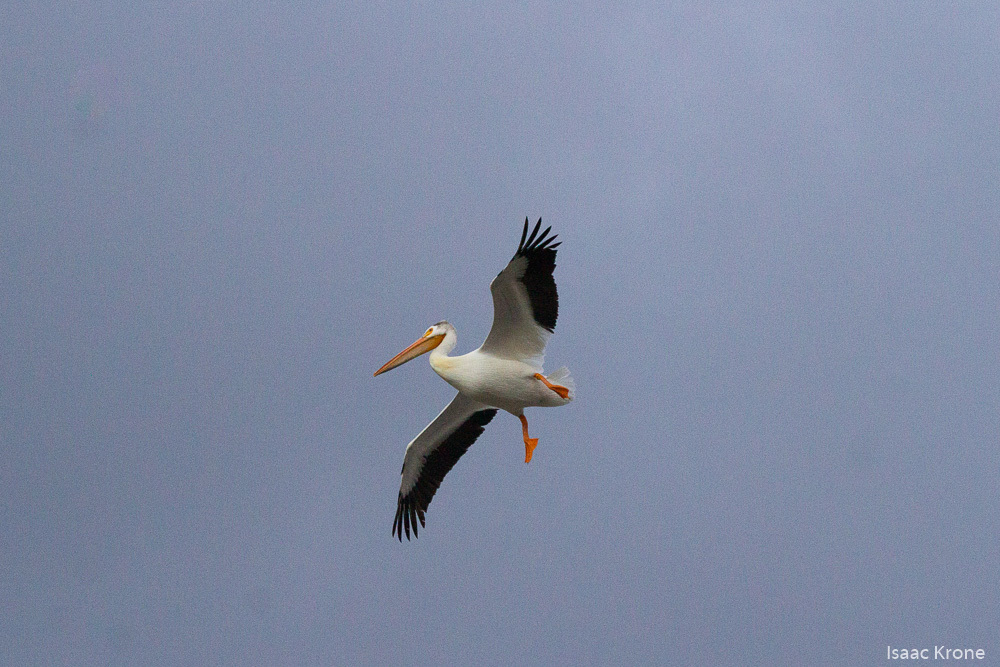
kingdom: Animalia
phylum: Chordata
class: Aves
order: Pelecaniformes
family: Pelecanidae
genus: Pelecanus
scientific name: Pelecanus erythrorhynchos
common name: American white pelican
